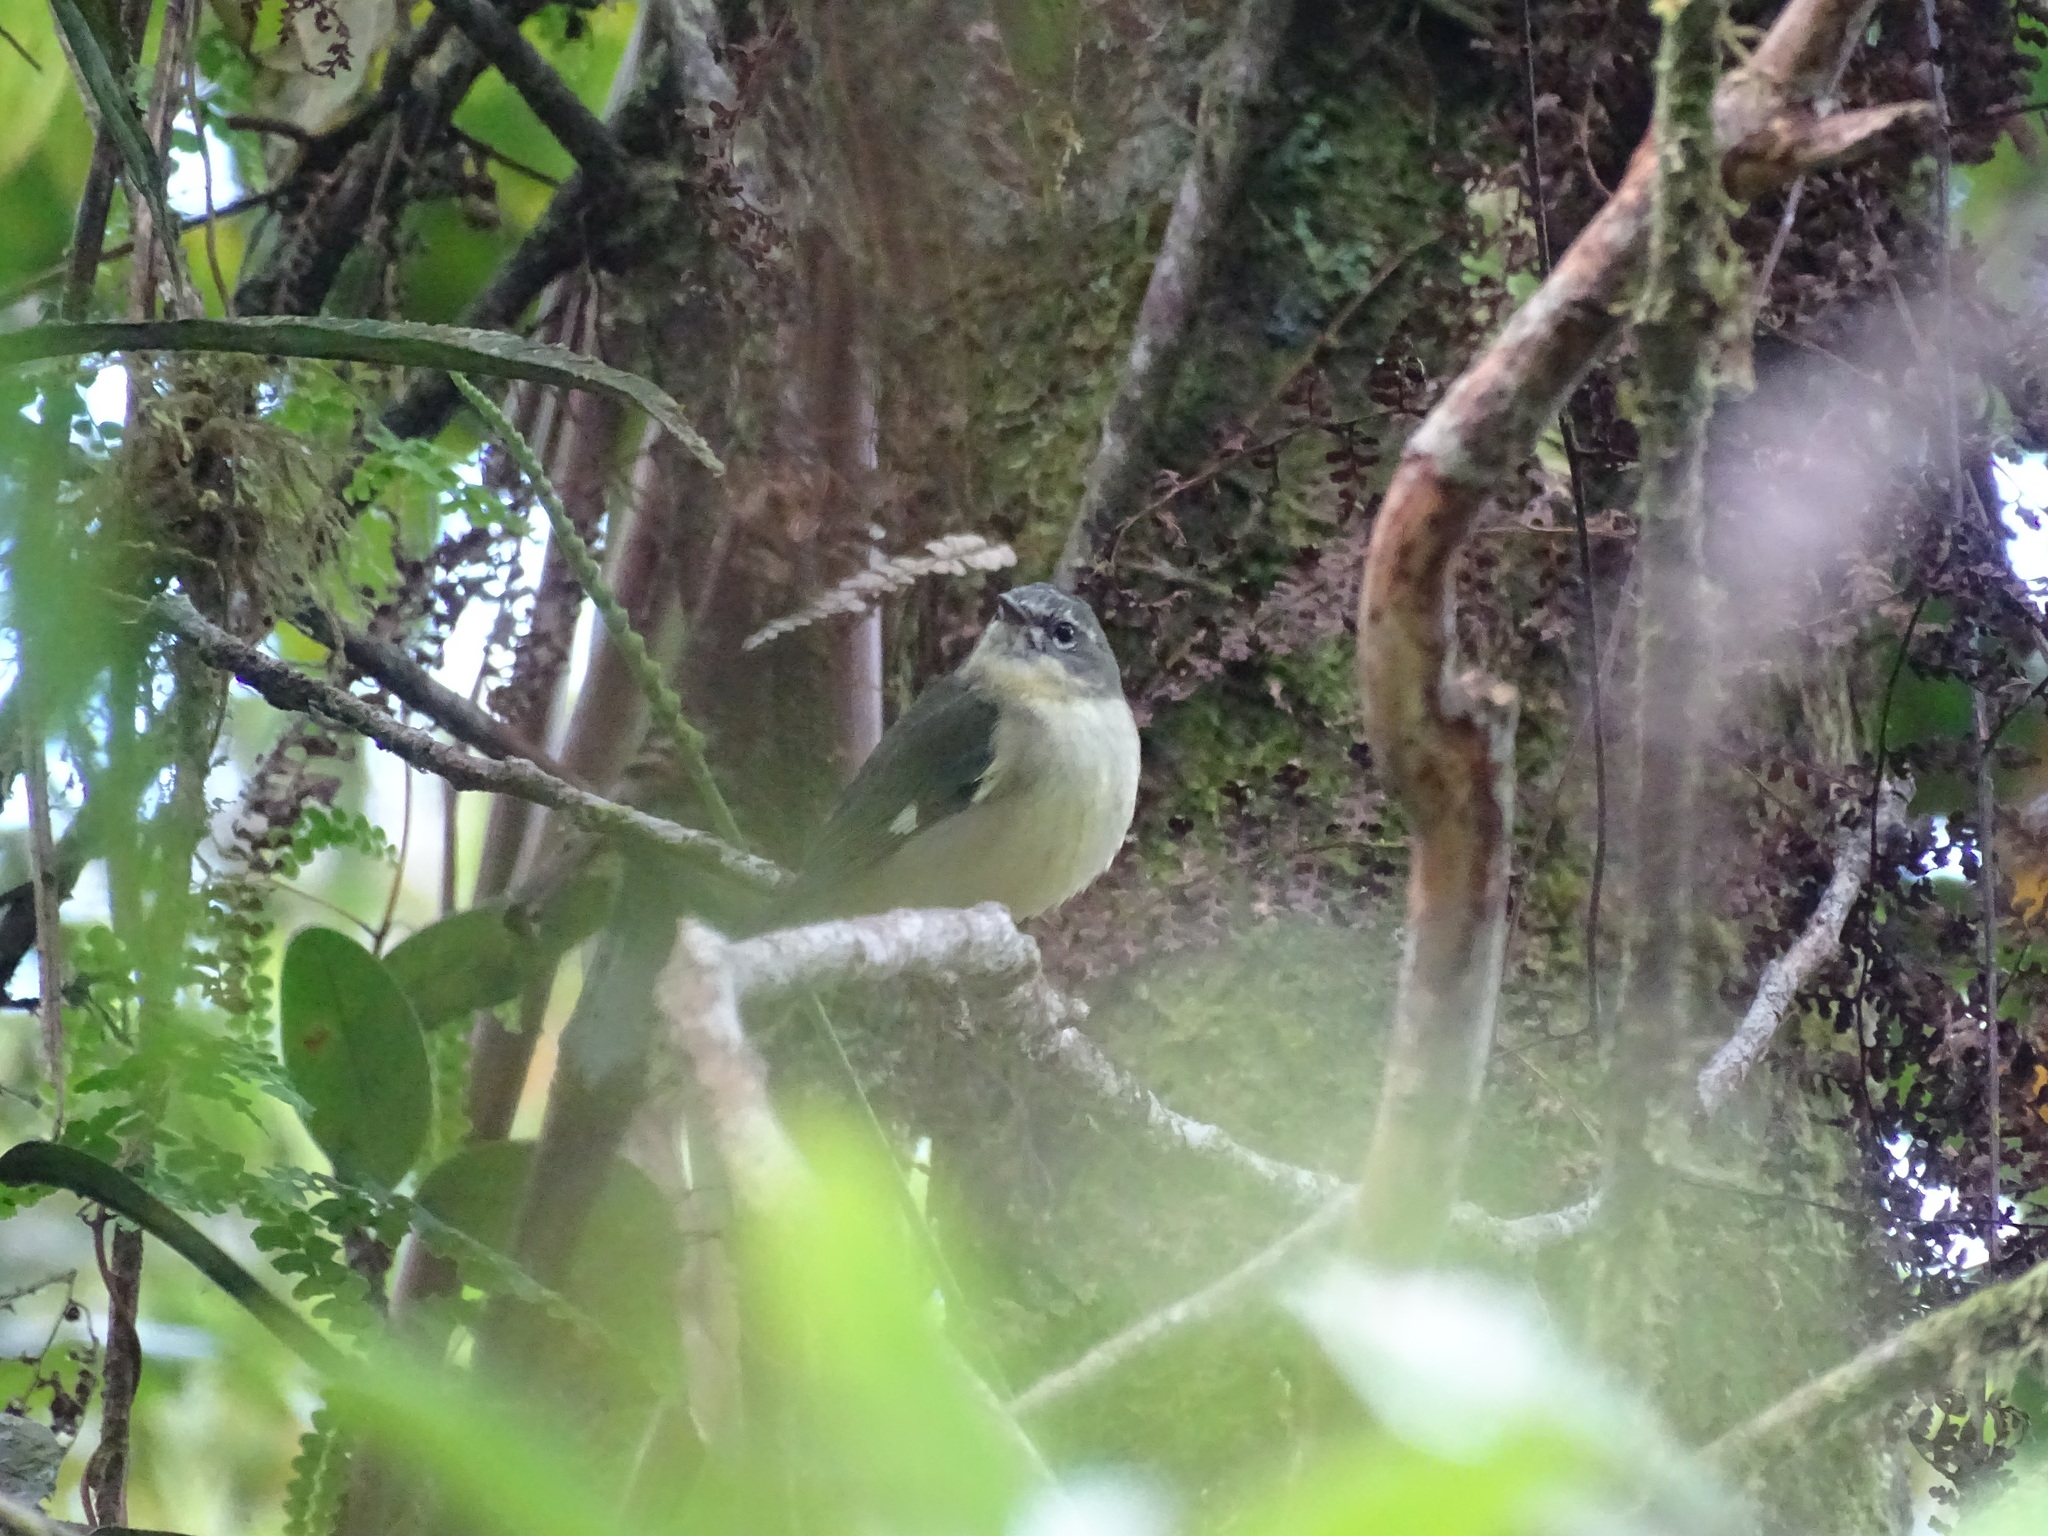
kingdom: Animalia
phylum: Chordata
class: Aves
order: Passeriformes
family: Parulidae
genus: Setophaga
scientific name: Setophaga caerulescens
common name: Black-throated blue warbler
